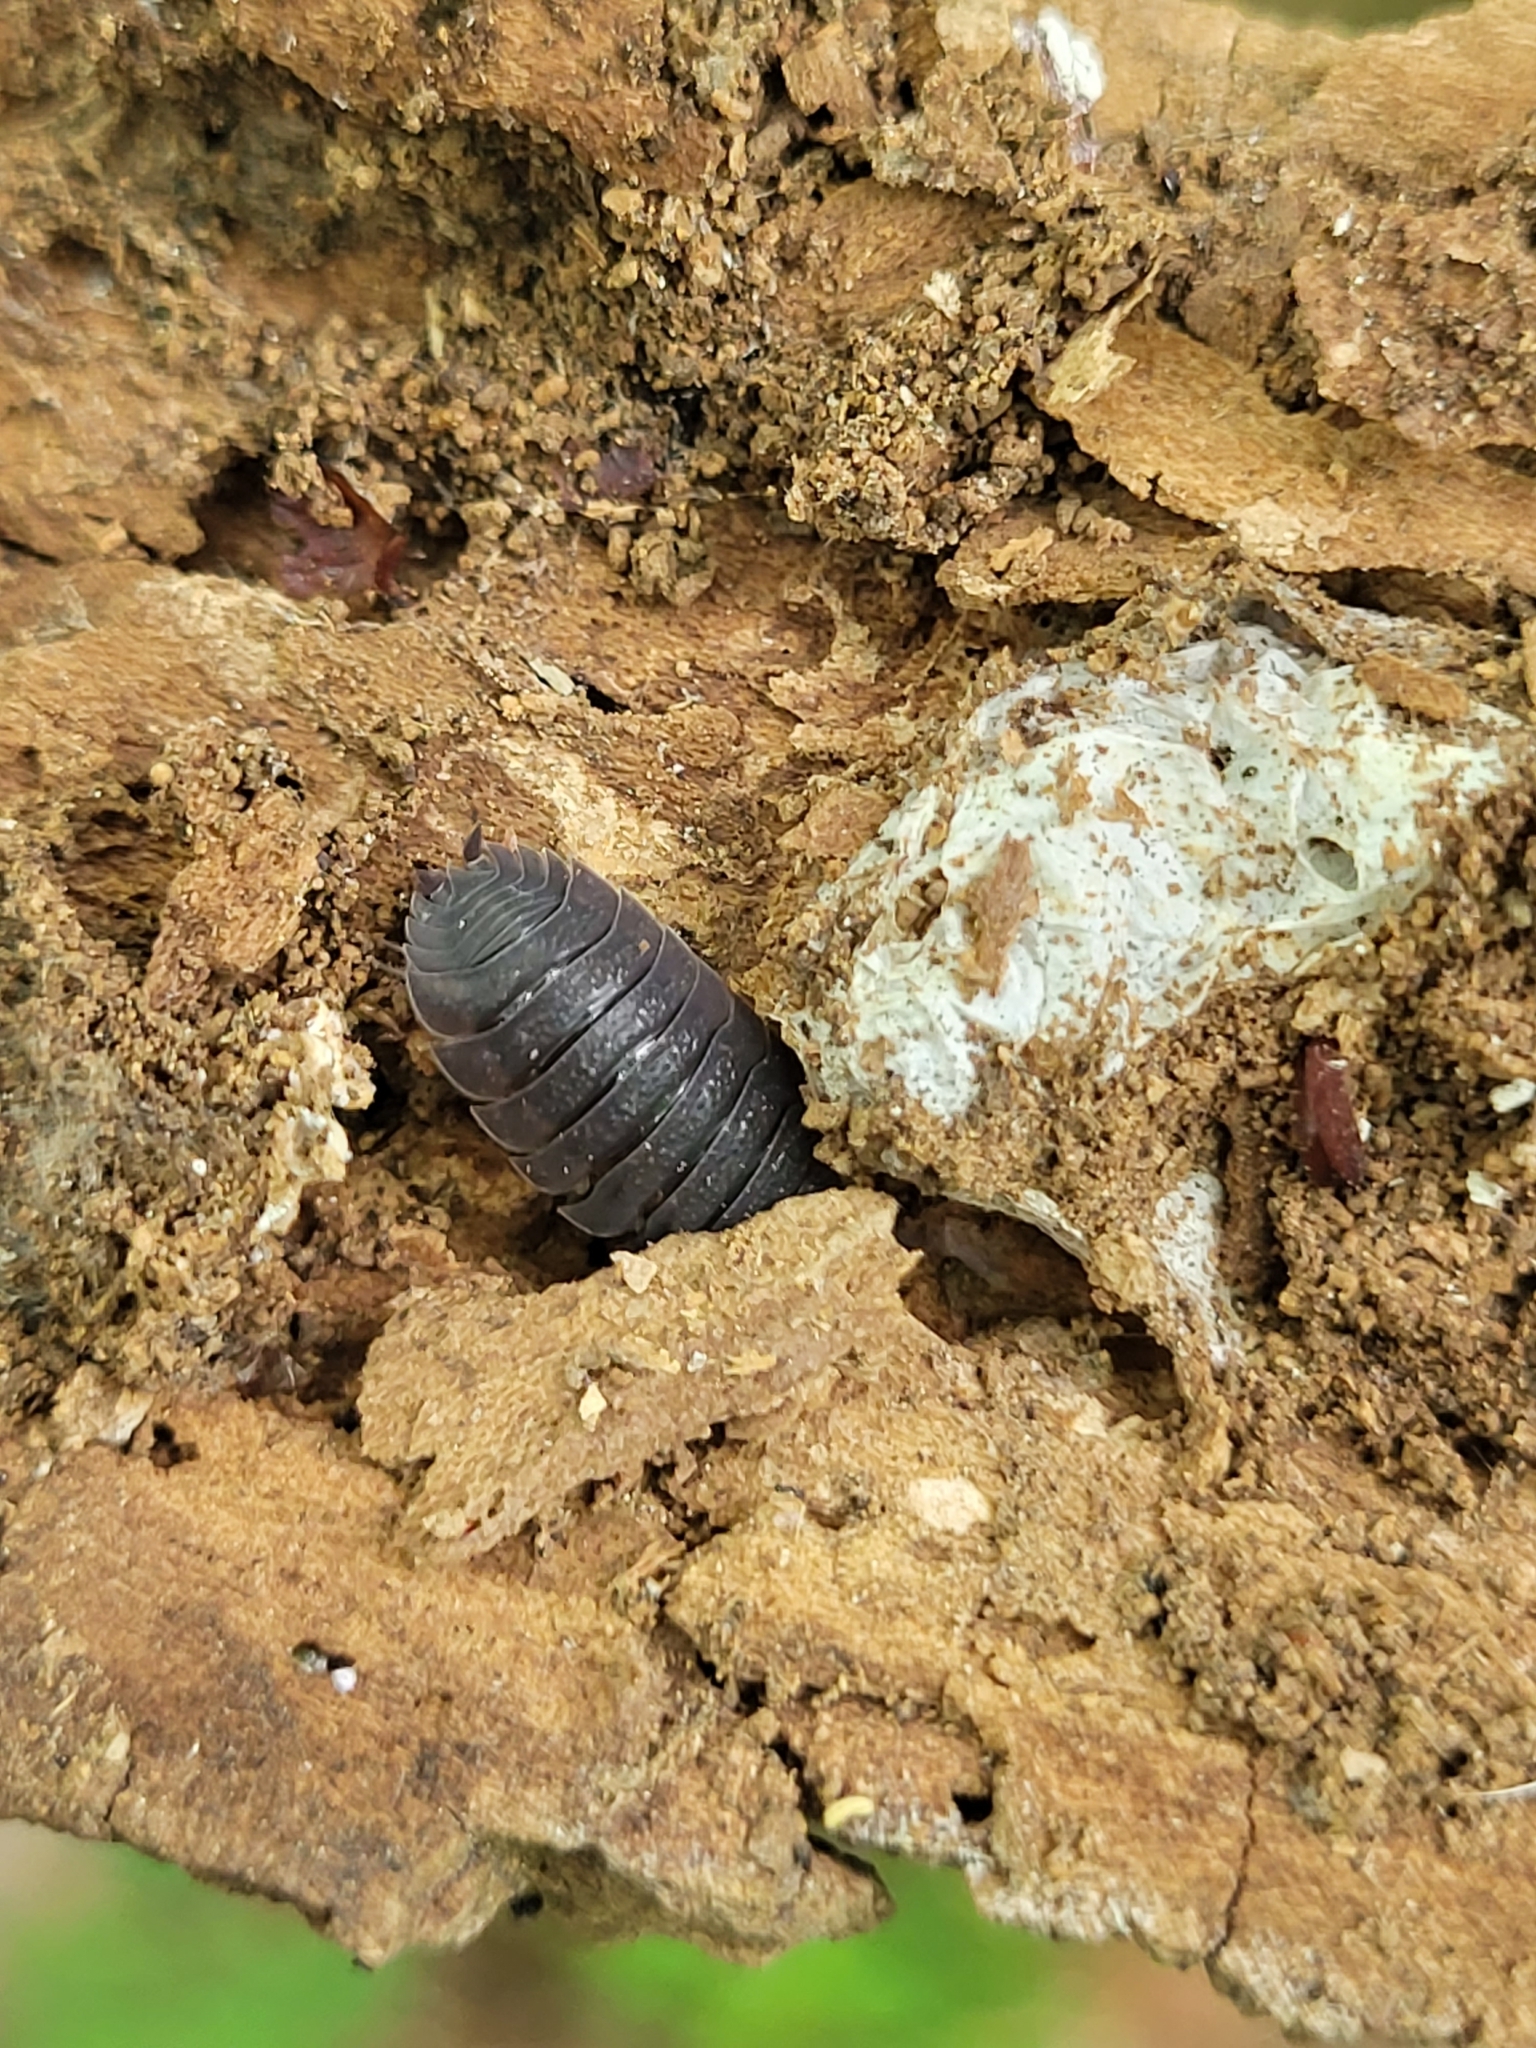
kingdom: Animalia
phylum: Arthropoda
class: Malacostraca
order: Isopoda
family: Porcellionidae
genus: Porcellio
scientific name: Porcellio scaber
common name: Common rough woodlouse
